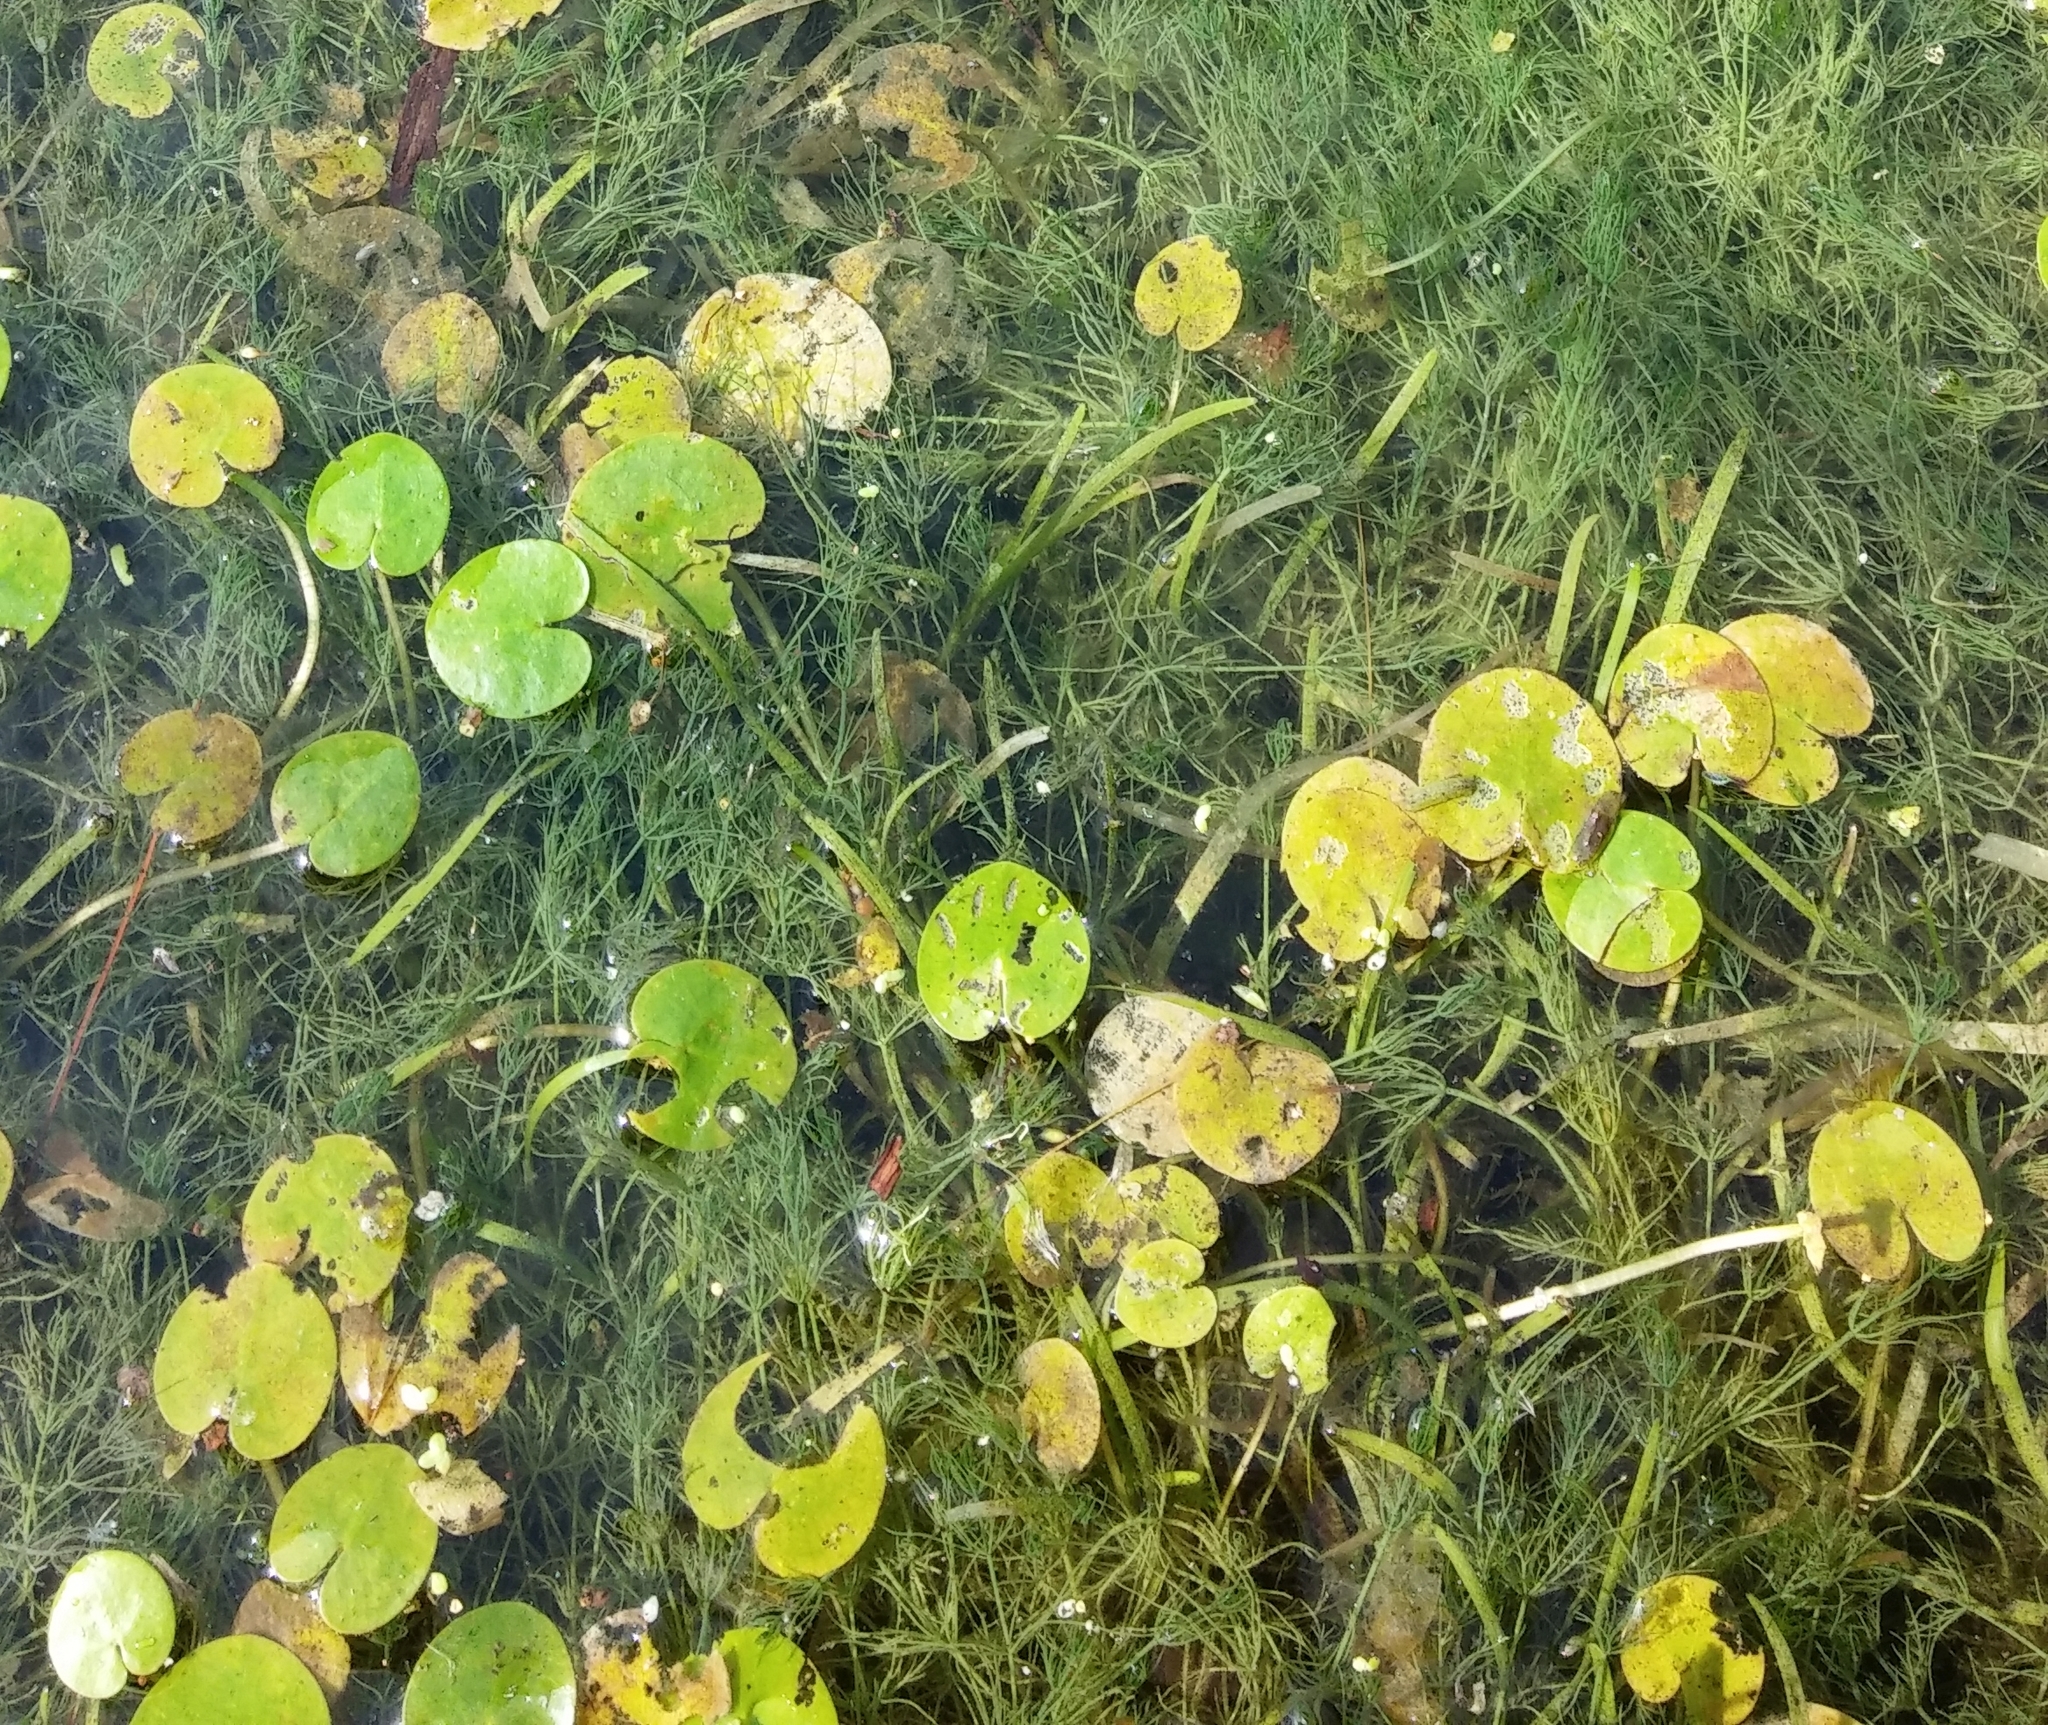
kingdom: Plantae
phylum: Tracheophyta
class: Liliopsida
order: Alismatales
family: Hydrocharitaceae
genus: Hydrocharis
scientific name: Hydrocharis morsus-ranae
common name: Frogbit
